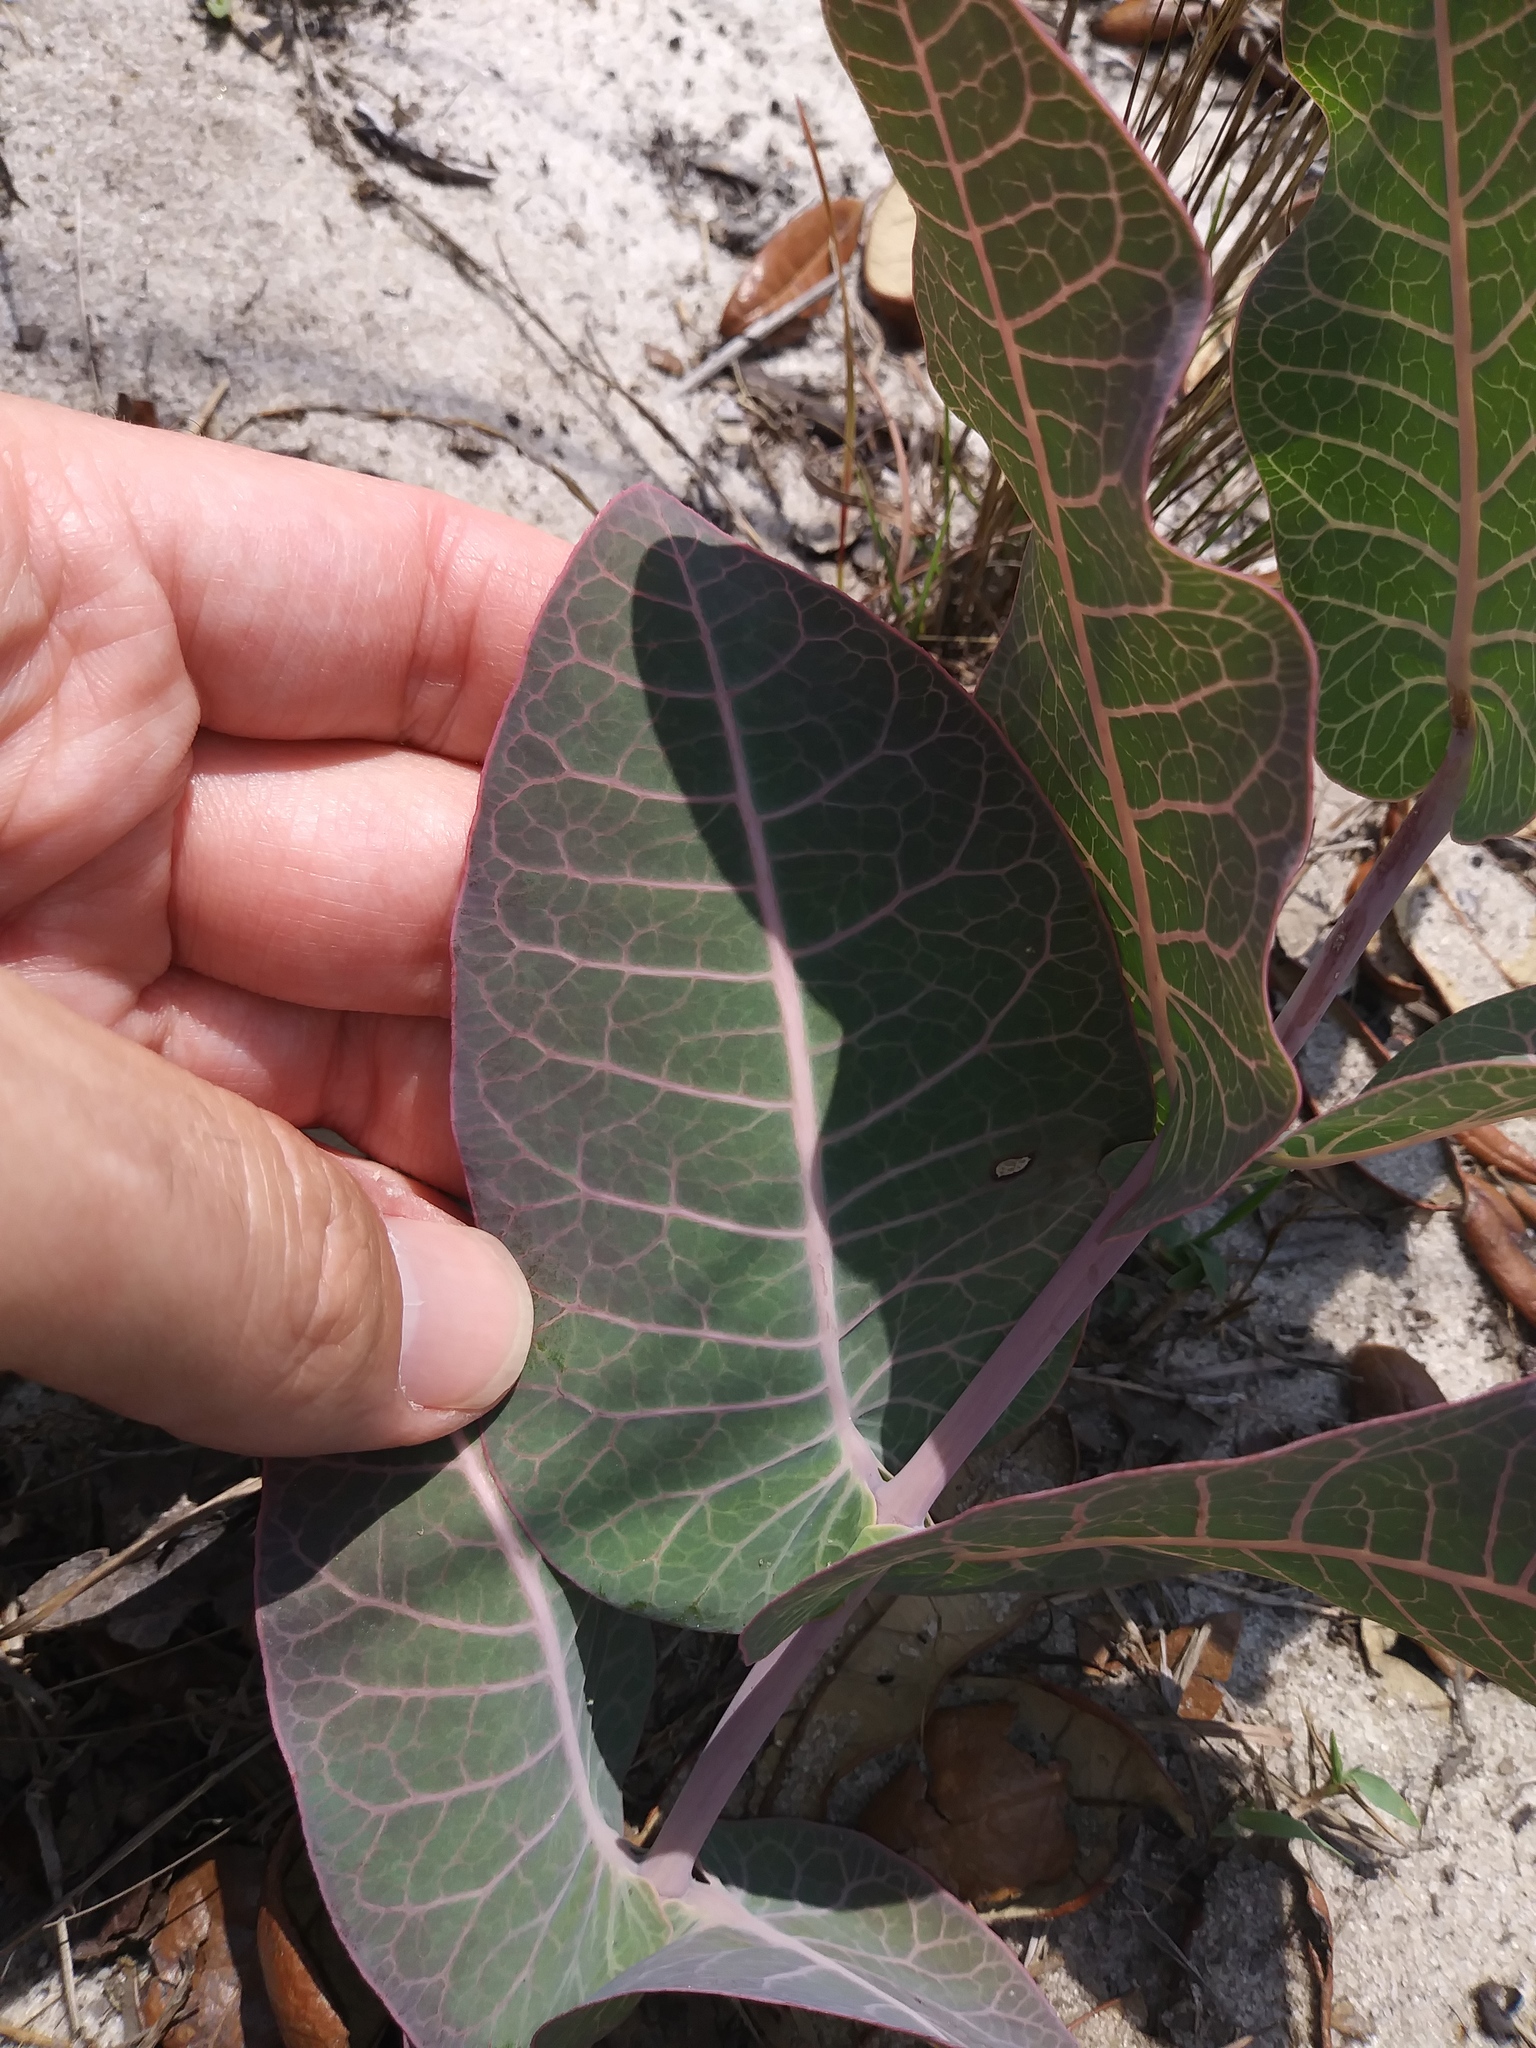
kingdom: Plantae
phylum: Tracheophyta
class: Magnoliopsida
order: Gentianales
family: Apocynaceae
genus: Asclepias
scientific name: Asclepias humistrata
